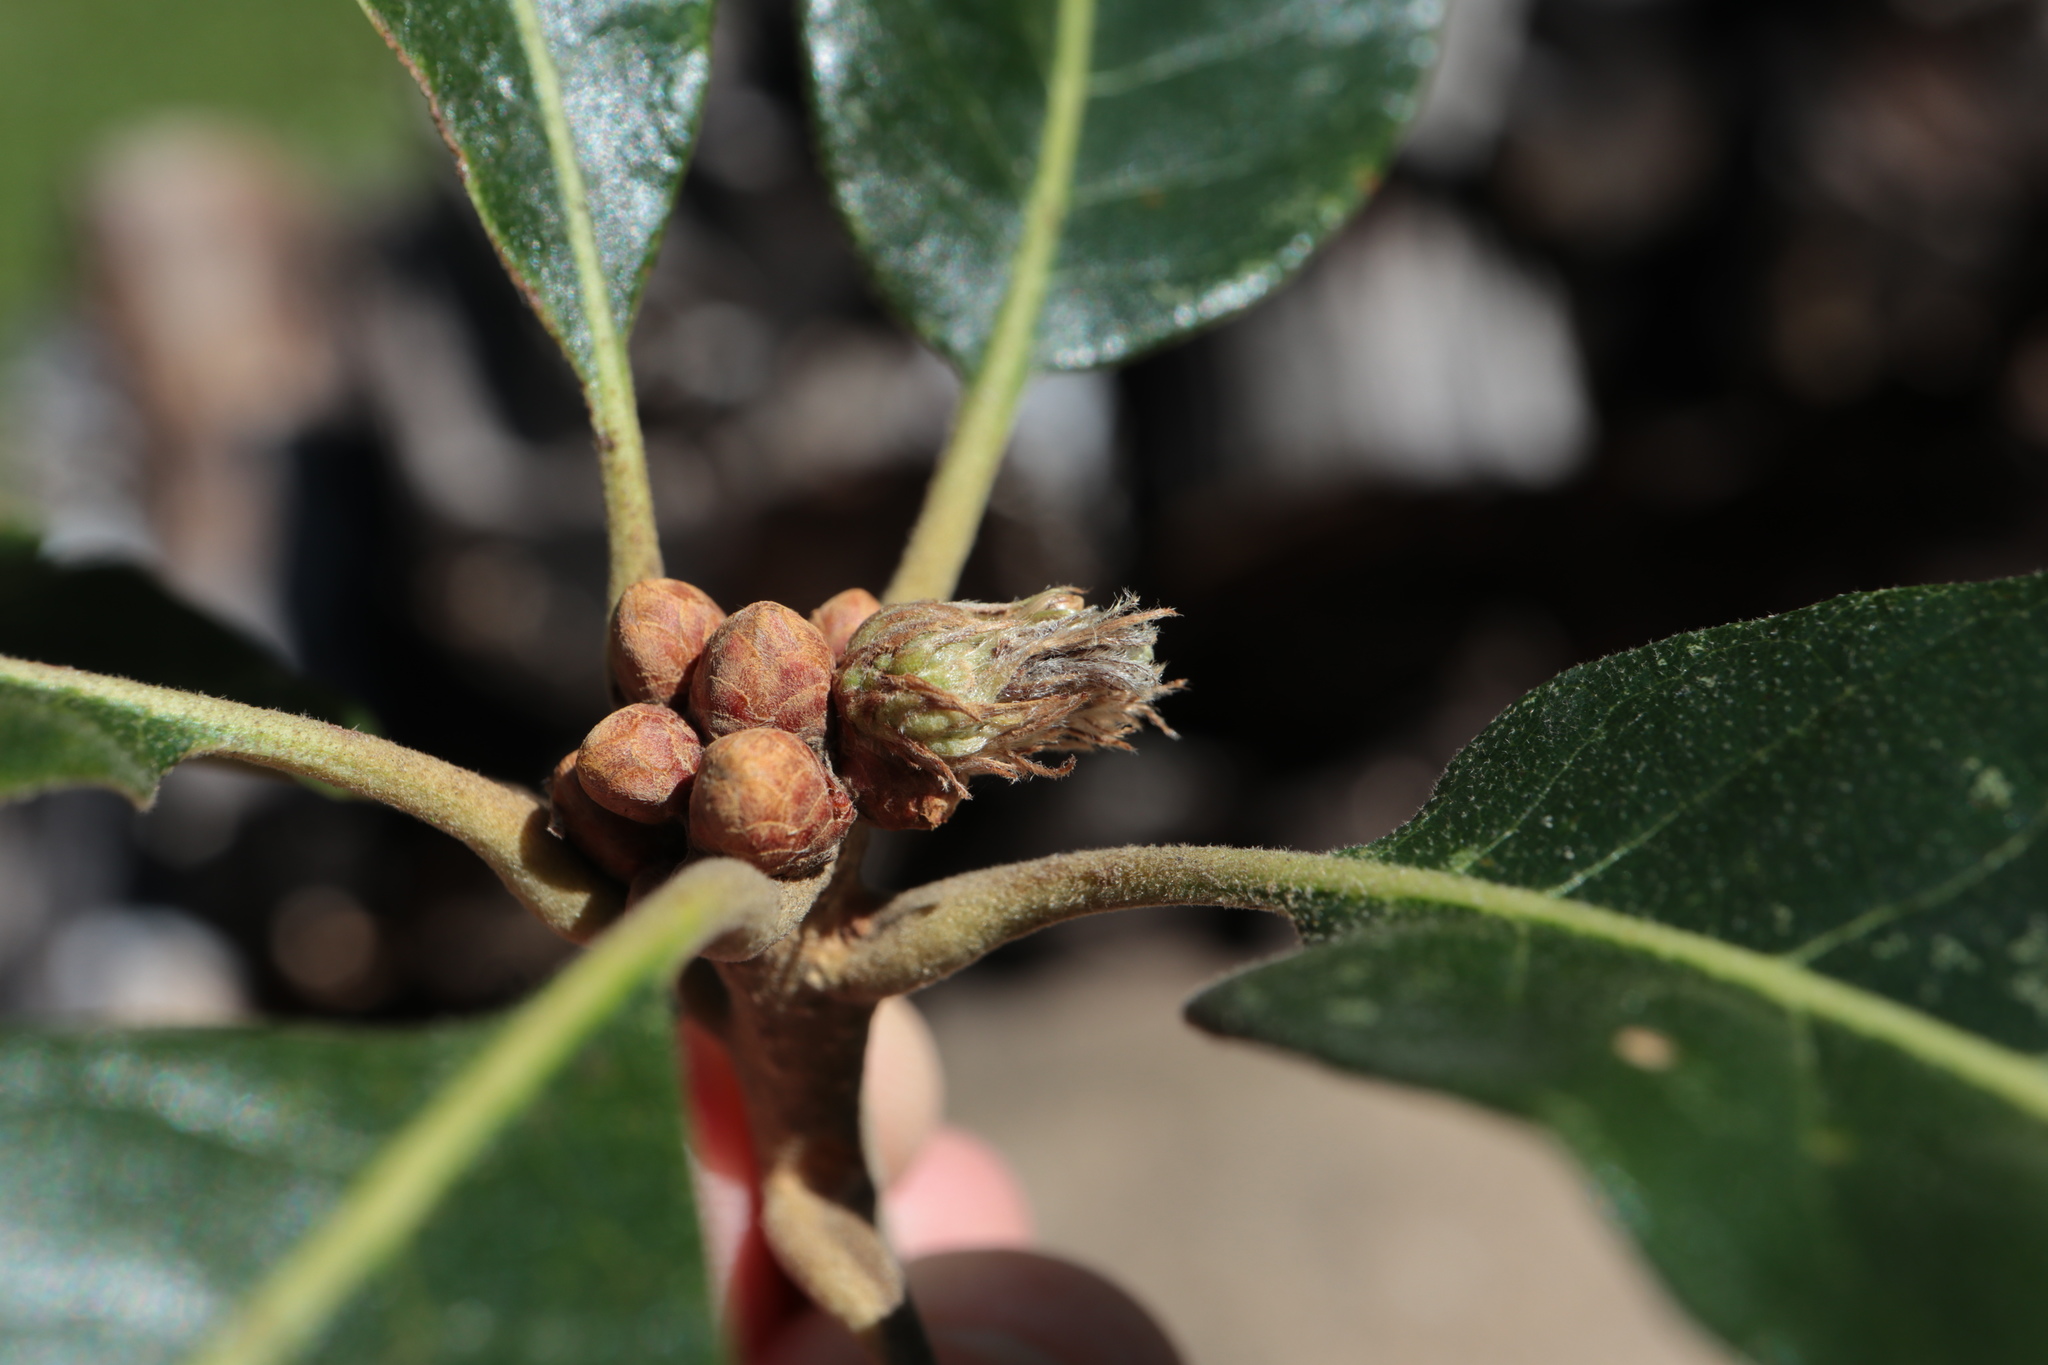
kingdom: Animalia
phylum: Arthropoda
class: Insecta
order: Hymenoptera
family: Cynipidae
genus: Andricus
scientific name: Andricus
